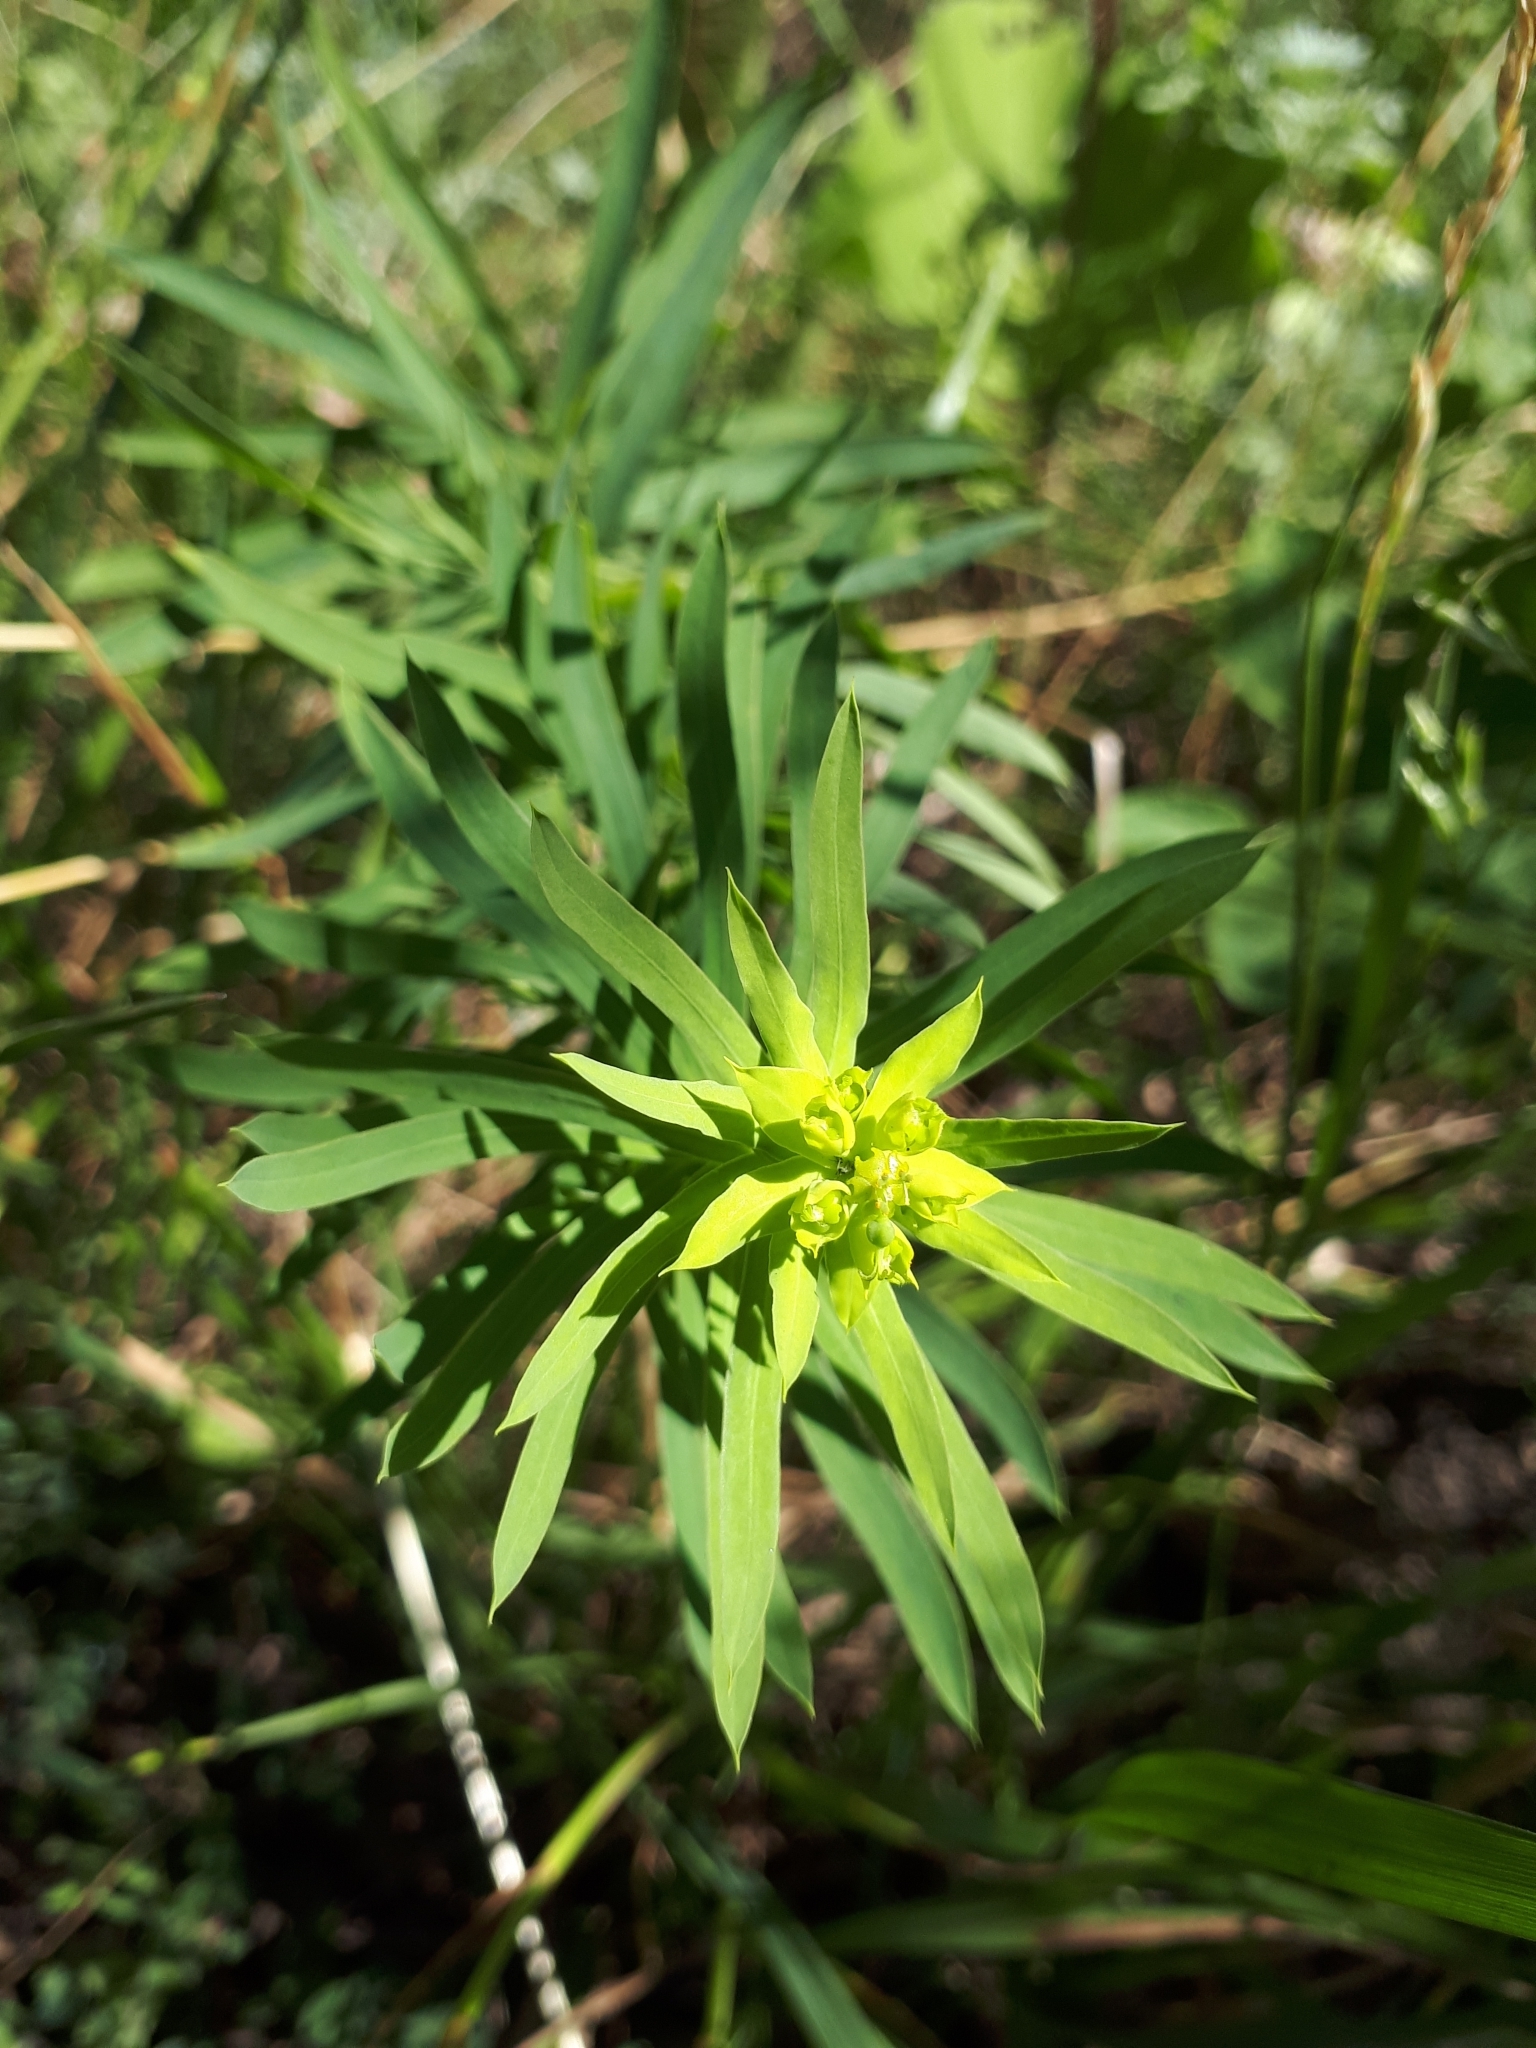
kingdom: Plantae
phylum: Tracheophyta
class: Magnoliopsida
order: Malpighiales
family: Euphorbiaceae
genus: Euphorbia
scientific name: Euphorbia virgata
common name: Leafy spurge
